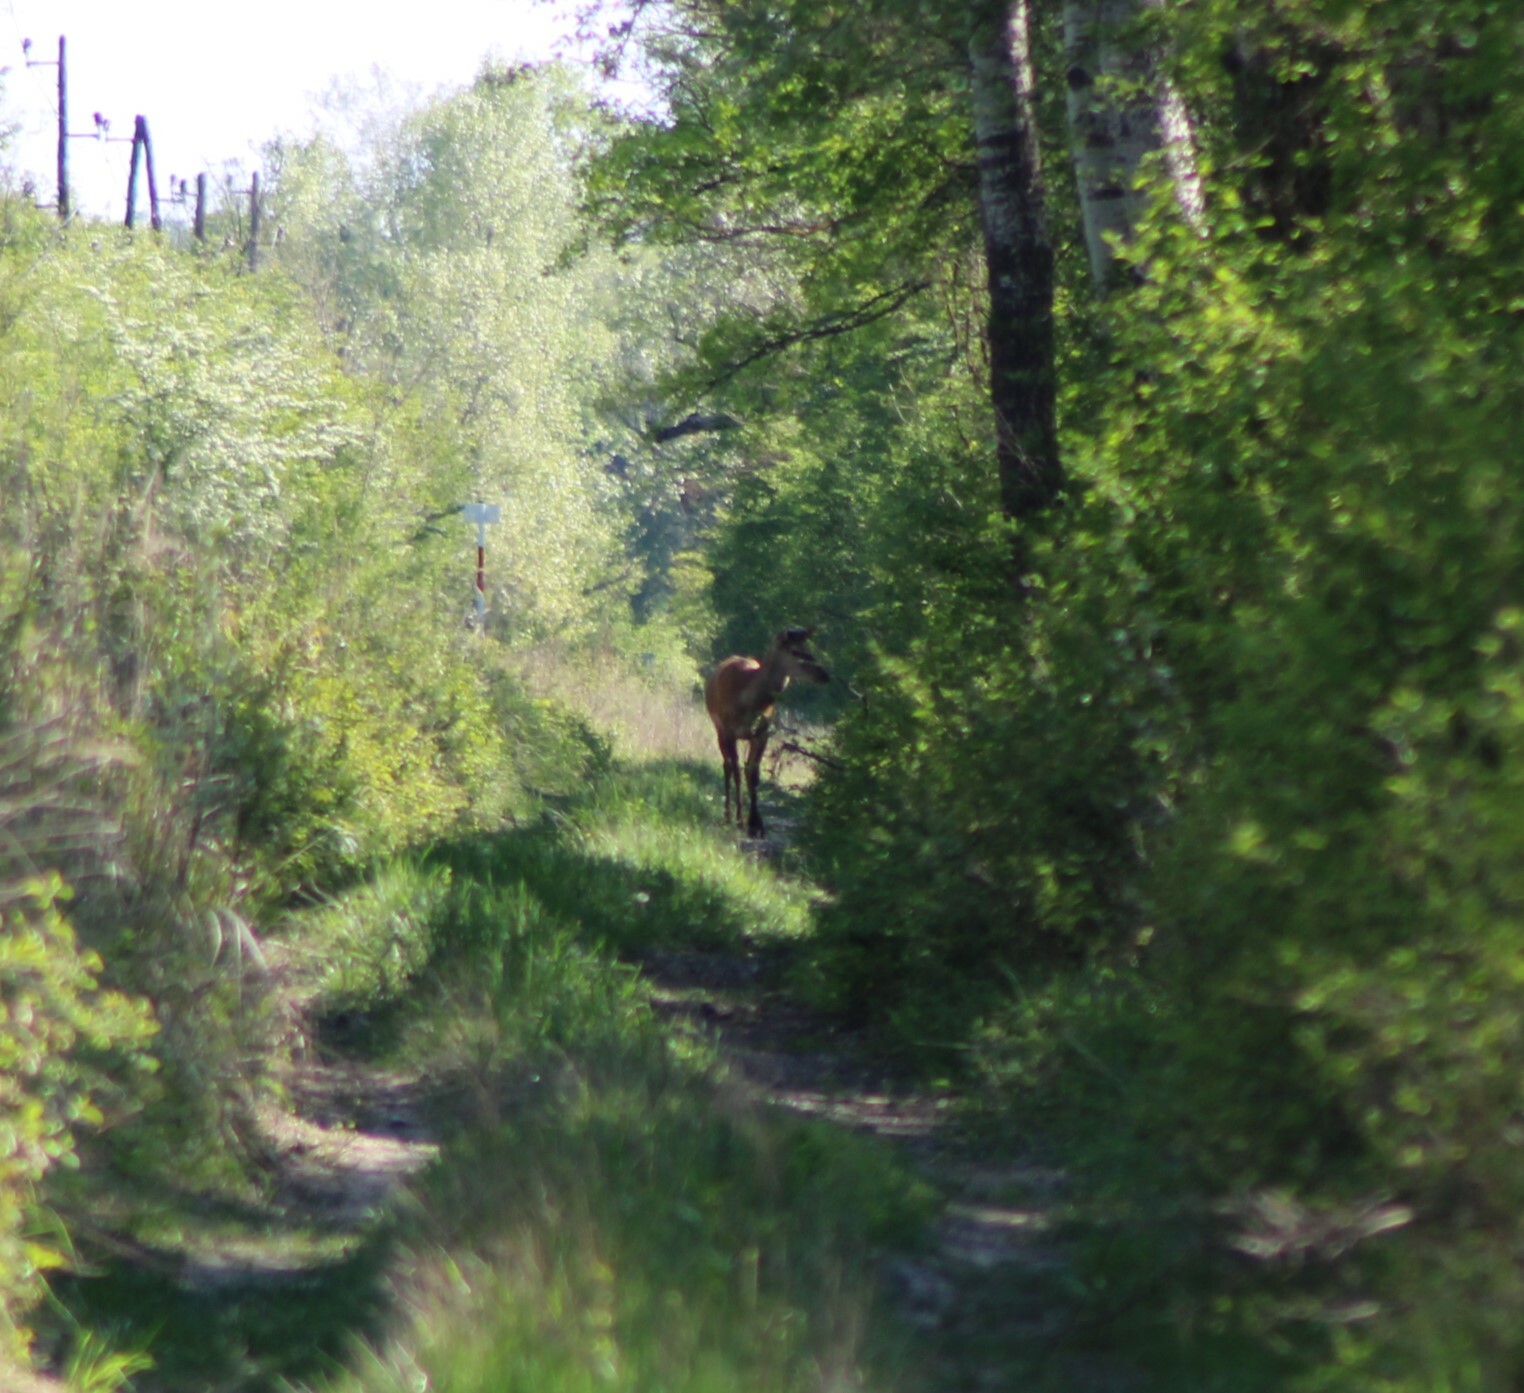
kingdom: Animalia
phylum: Chordata
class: Mammalia
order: Artiodactyla
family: Cervidae
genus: Cervus
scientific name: Cervus elaphus
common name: Red deer
